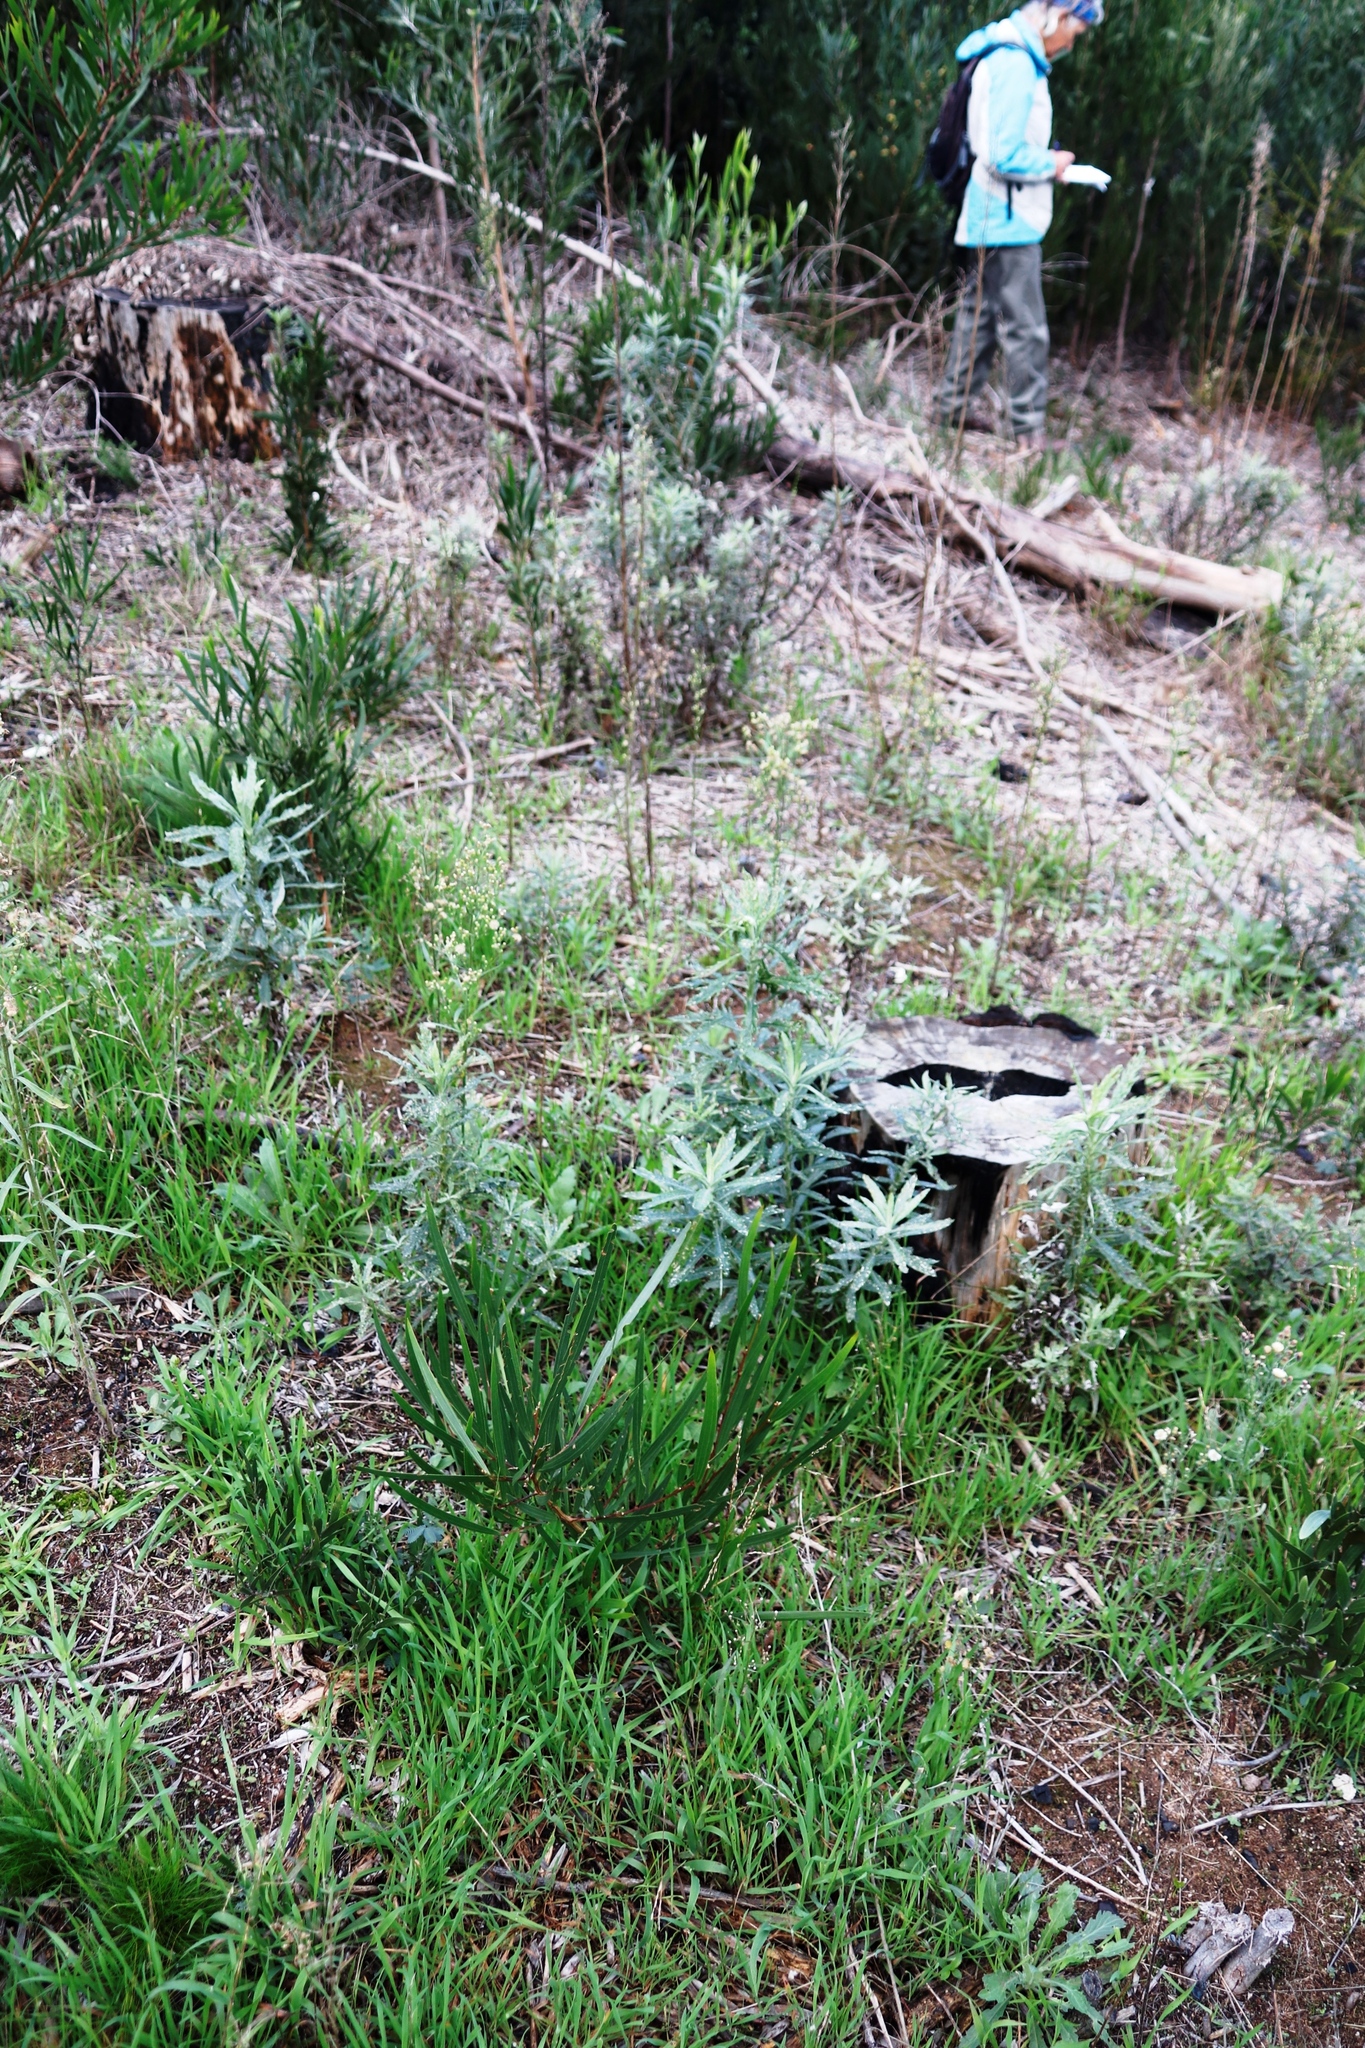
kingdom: Plantae
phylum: Tracheophyta
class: Magnoliopsida
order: Asterales
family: Asteraceae
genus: Senecio
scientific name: Senecio pterophorus
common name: Shoddy ragwort
